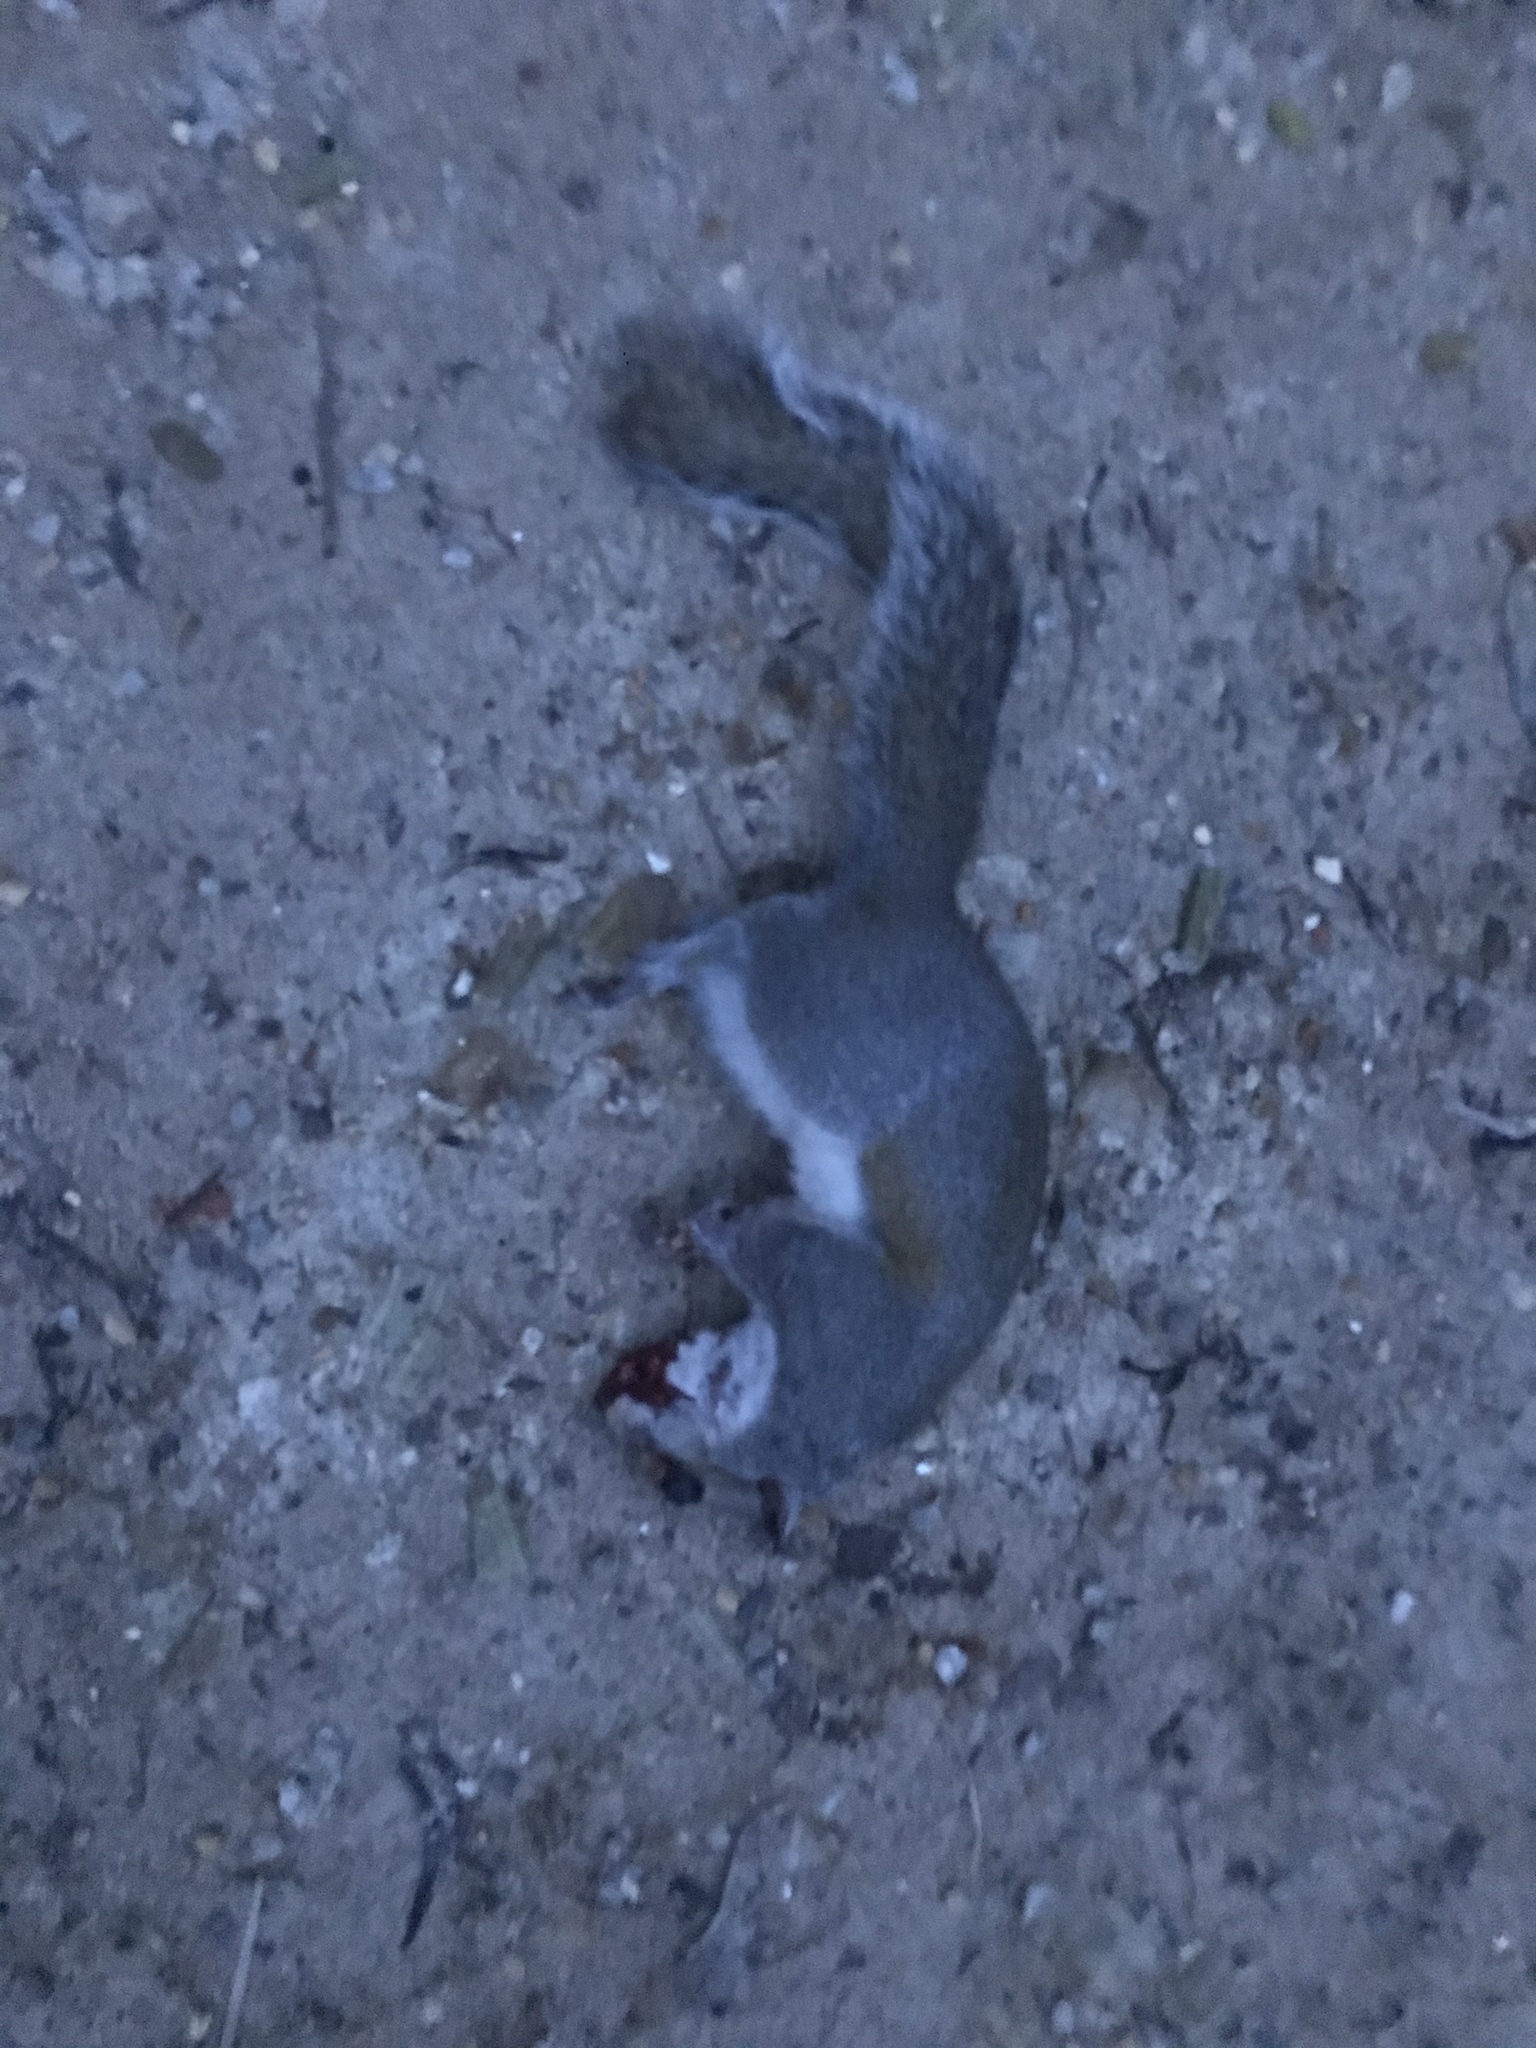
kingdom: Animalia
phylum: Chordata
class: Mammalia
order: Rodentia
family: Sciuridae
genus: Sciurus
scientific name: Sciurus carolinensis
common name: Eastern gray squirrel
